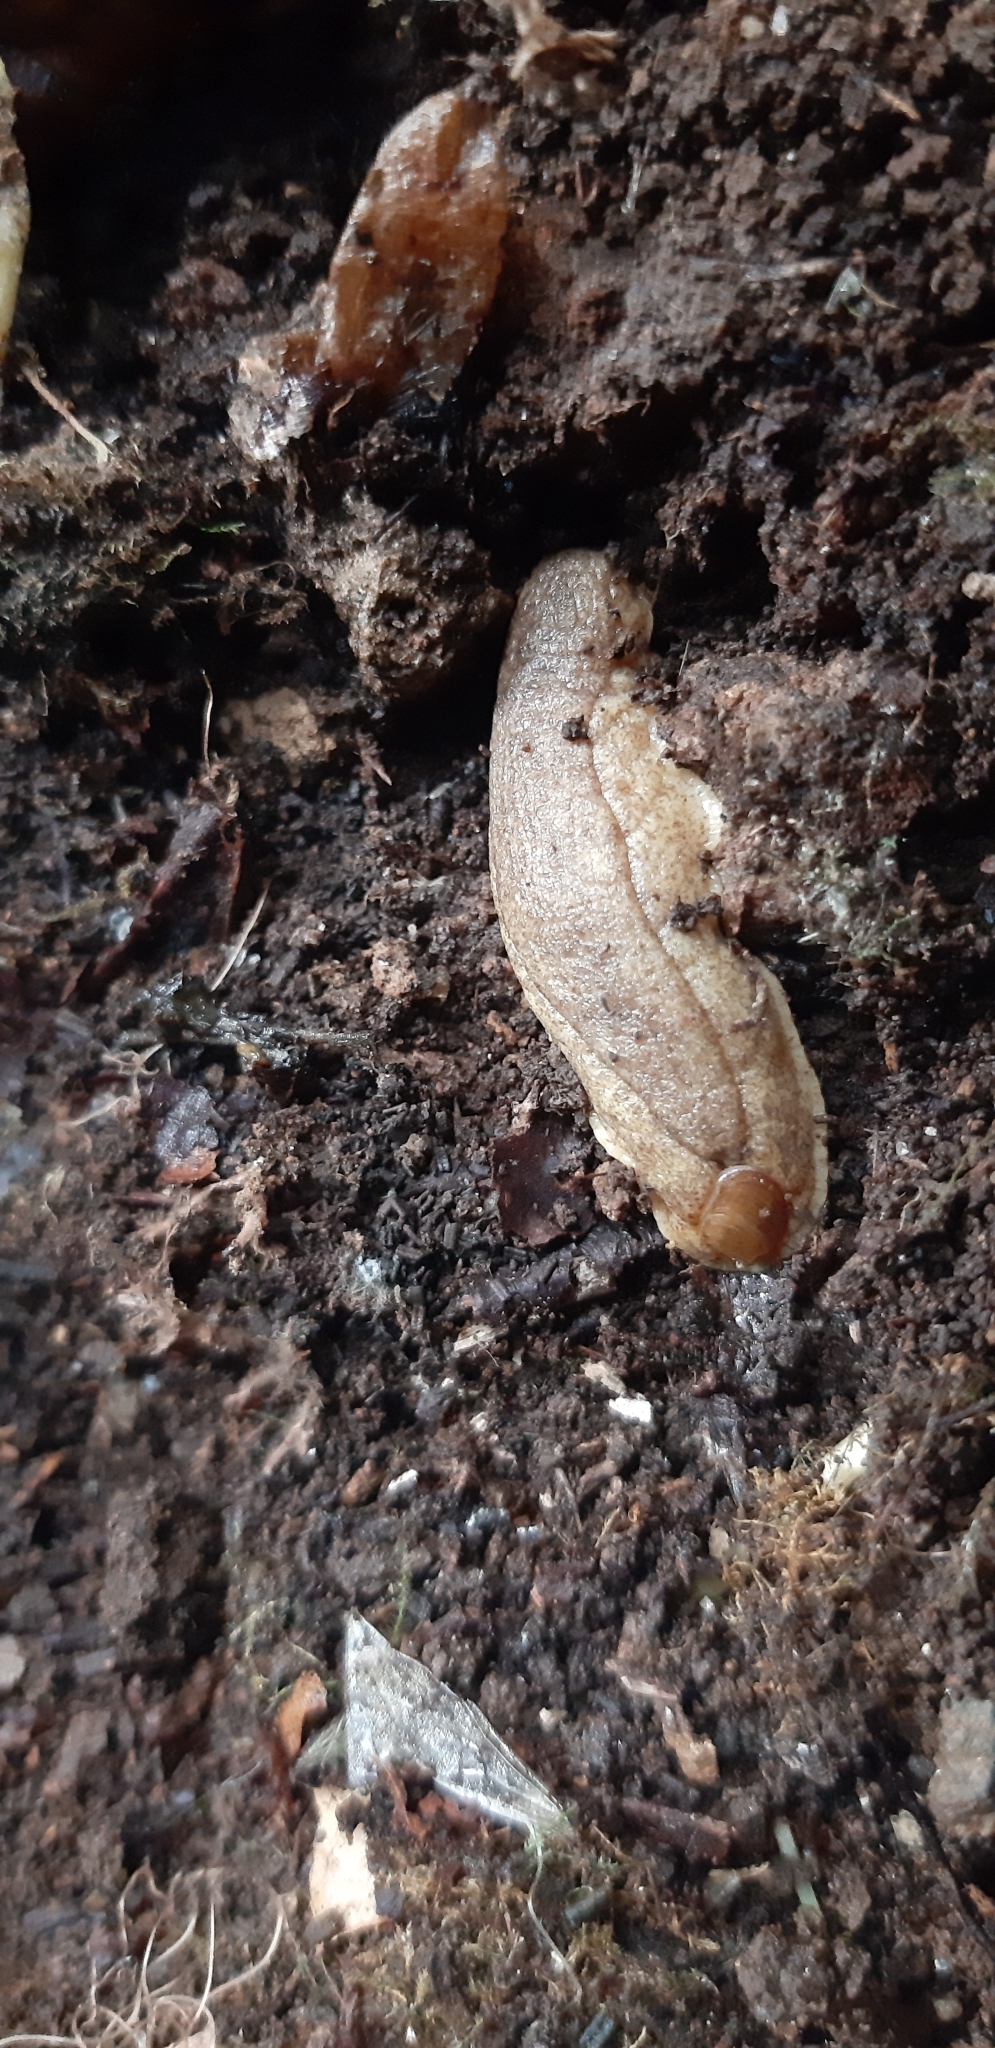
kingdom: Animalia
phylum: Mollusca
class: Gastropoda
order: Stylommatophora
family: Testacellidae
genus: Testacella
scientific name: Testacella haliotidea
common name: Shelled slug
